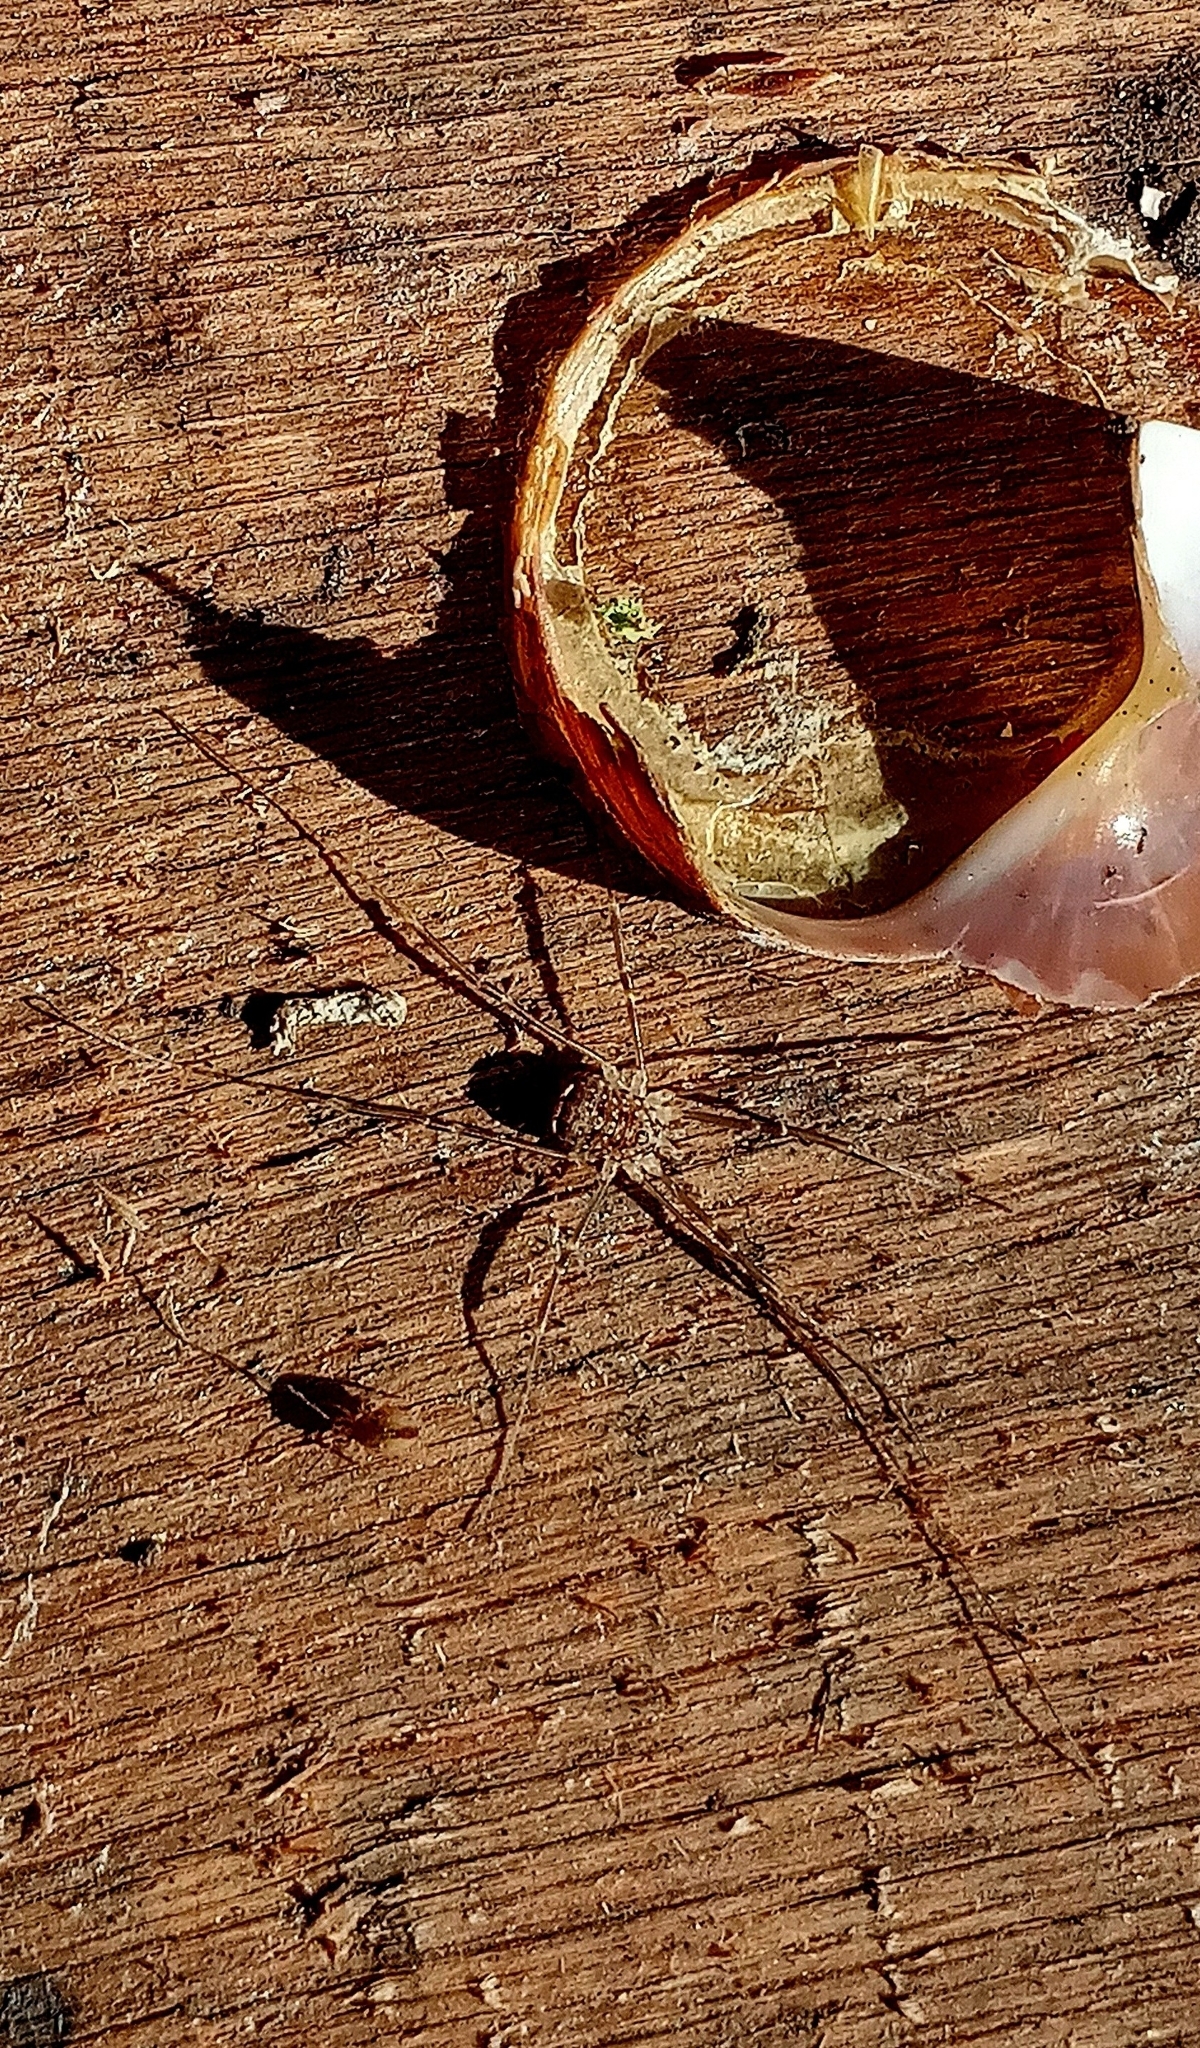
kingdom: Animalia
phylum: Arthropoda
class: Arachnida
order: Opiliones
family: Sclerosomatidae
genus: Nelima
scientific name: Nelima doriae
